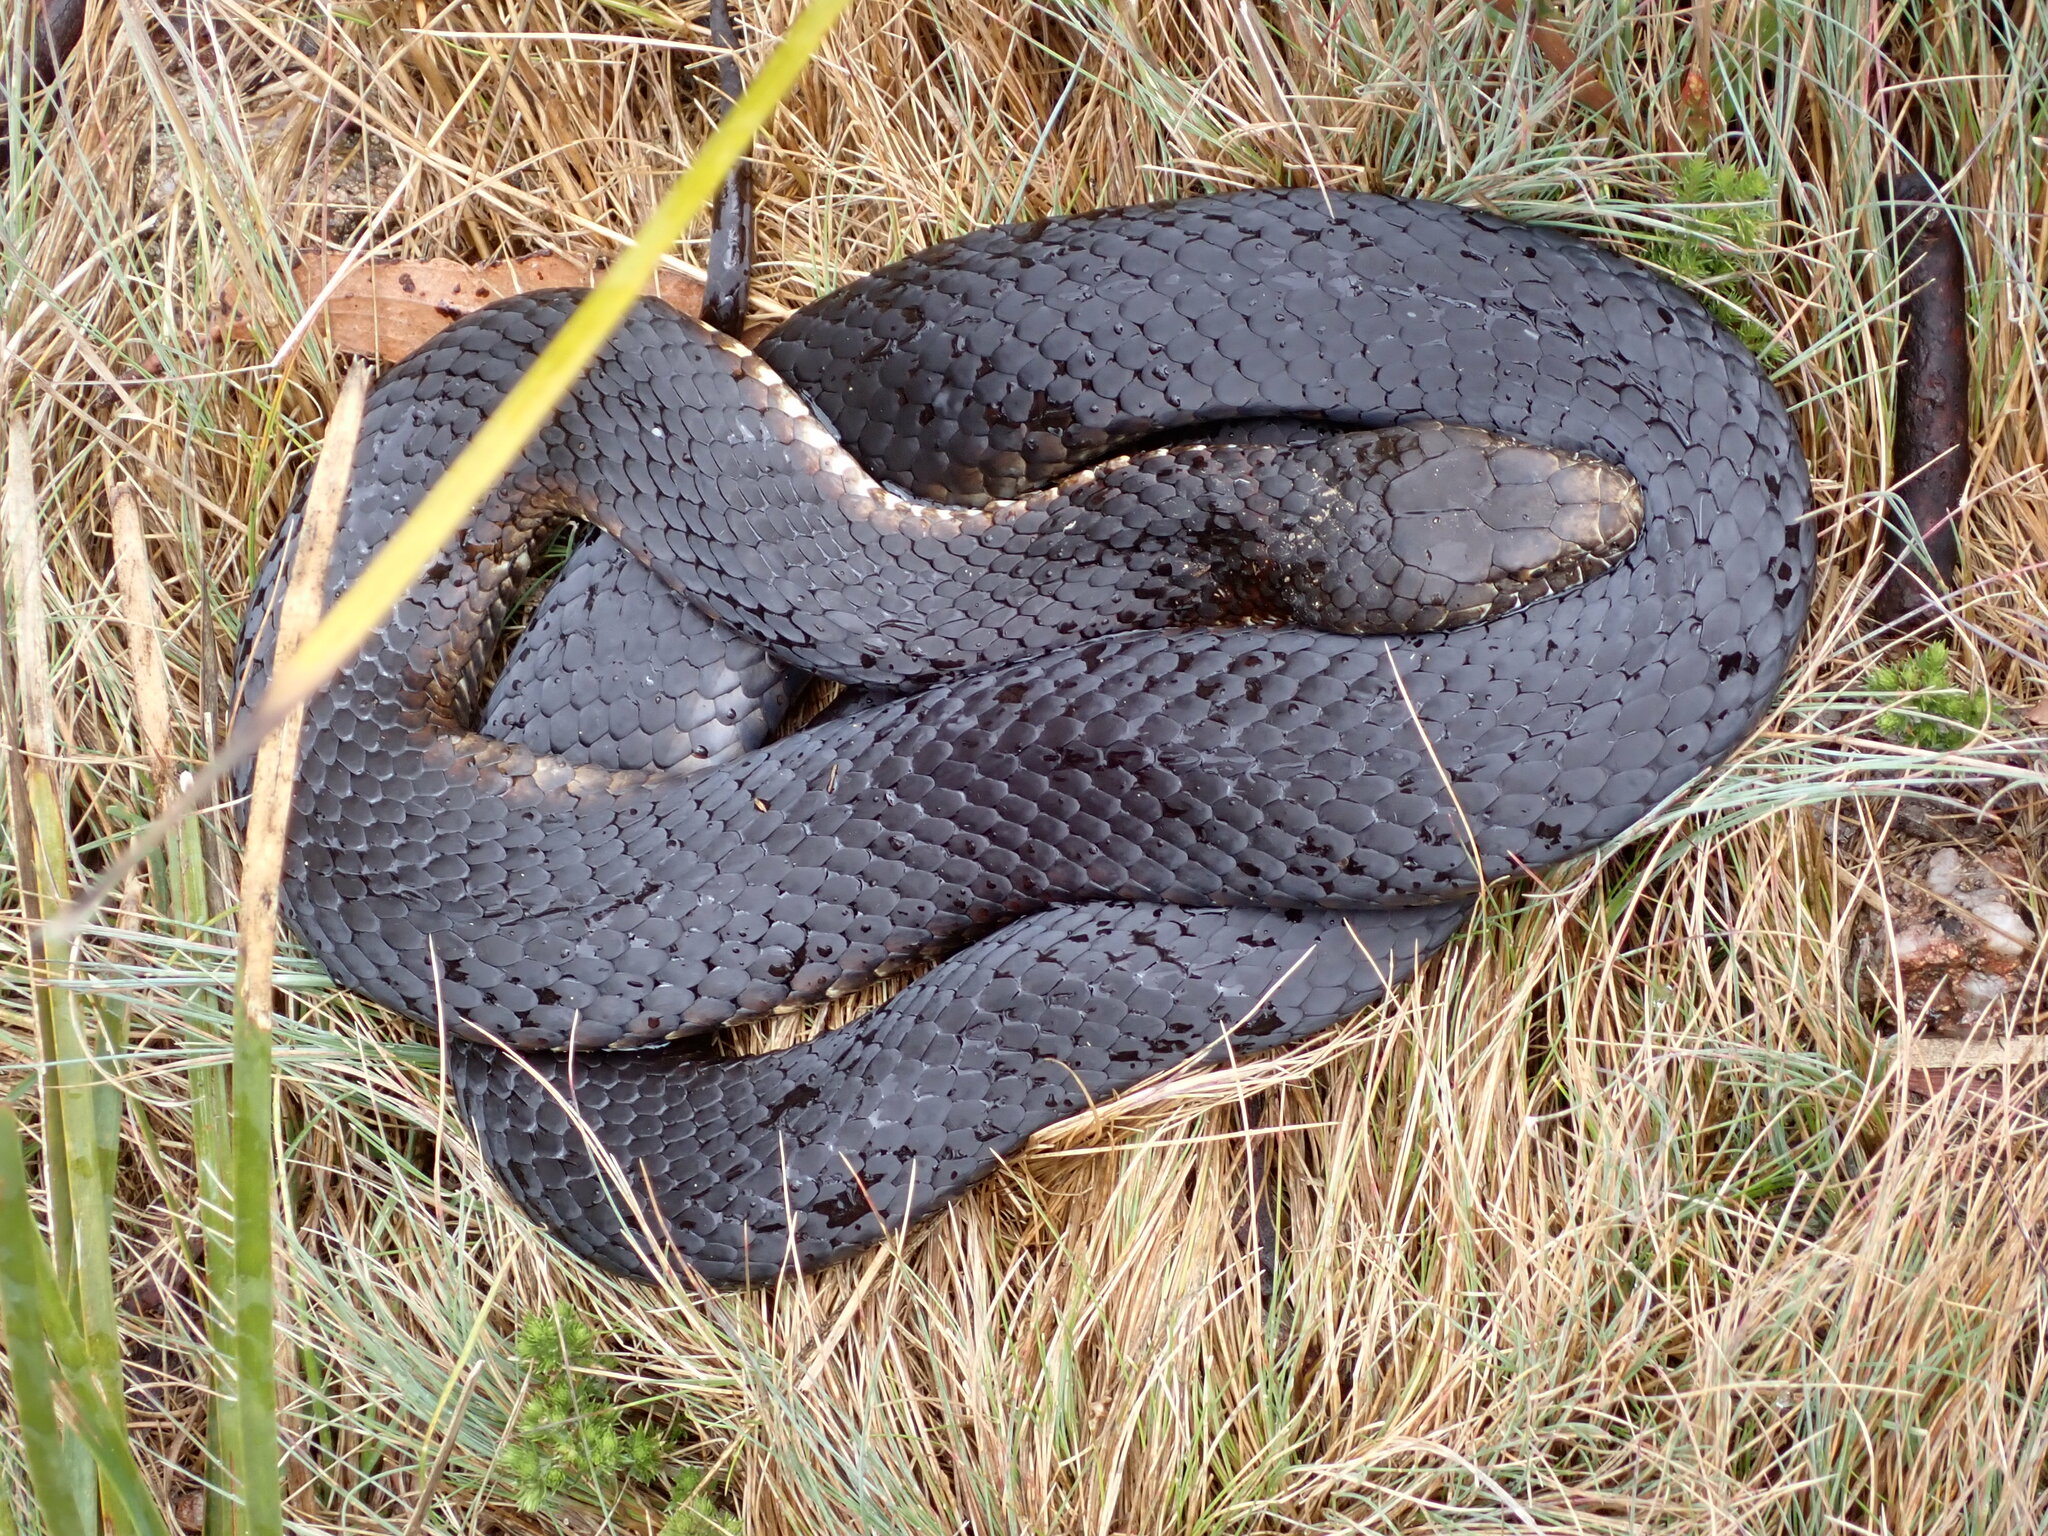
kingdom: Animalia
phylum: Chordata
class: Squamata
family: Elapidae
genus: Austrelaps
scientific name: Austrelaps ramsayi
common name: Highlands copperhead
